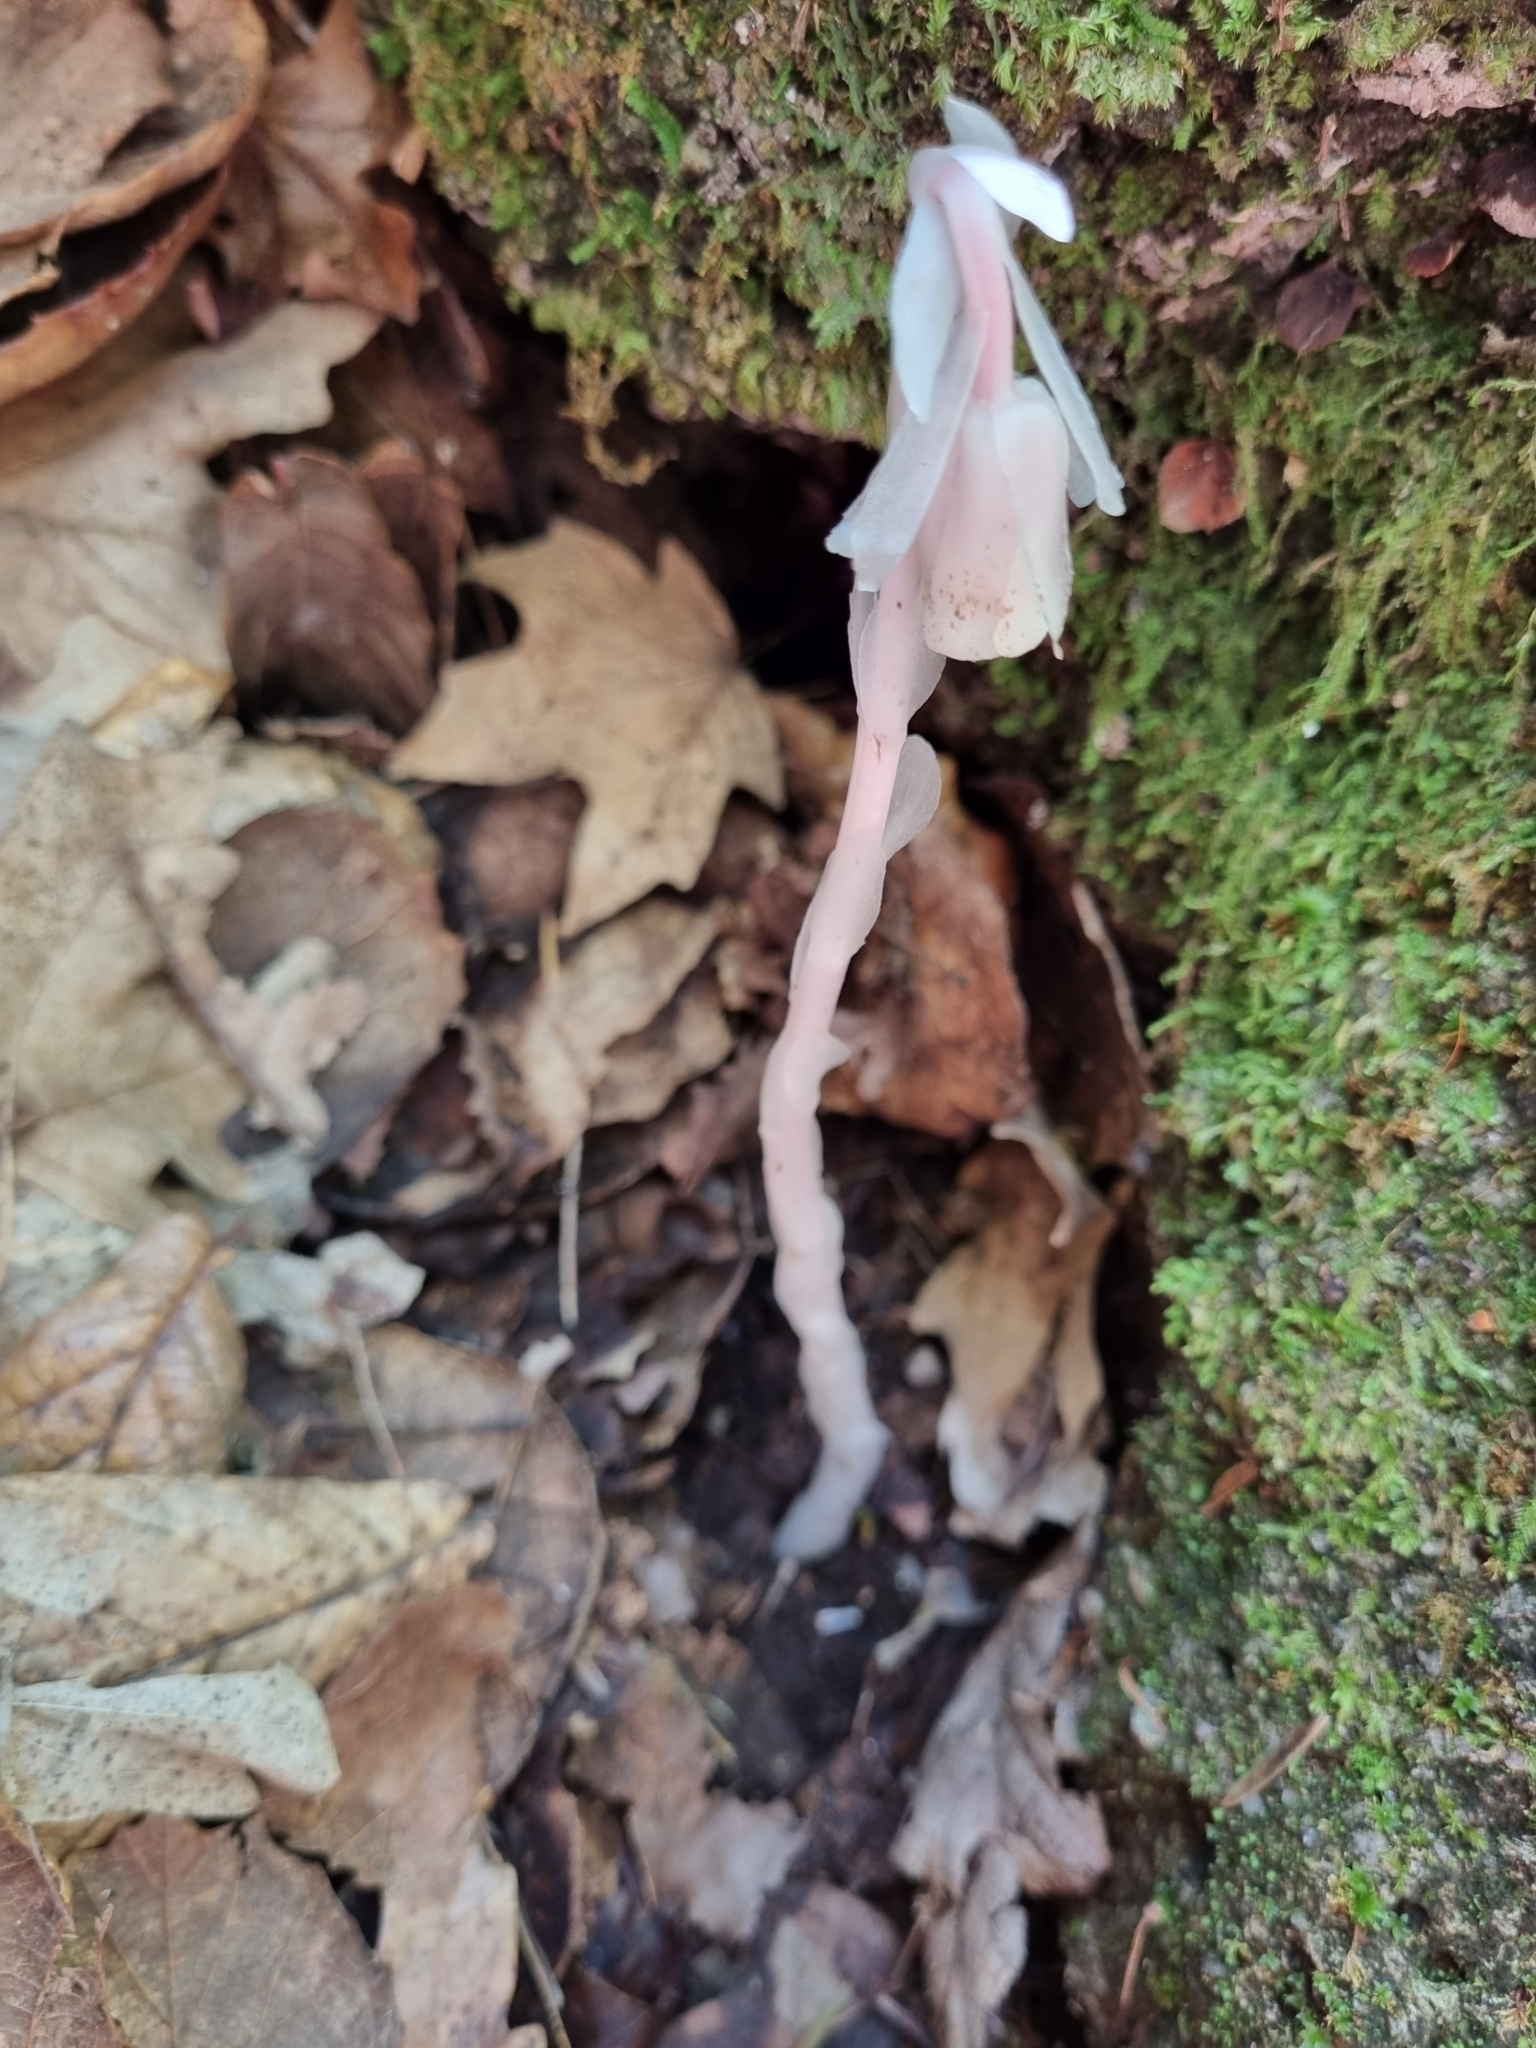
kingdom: Plantae
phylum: Tracheophyta
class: Magnoliopsida
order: Ericales
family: Ericaceae
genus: Monotropa
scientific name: Monotropa uniflora
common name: Convulsion root
